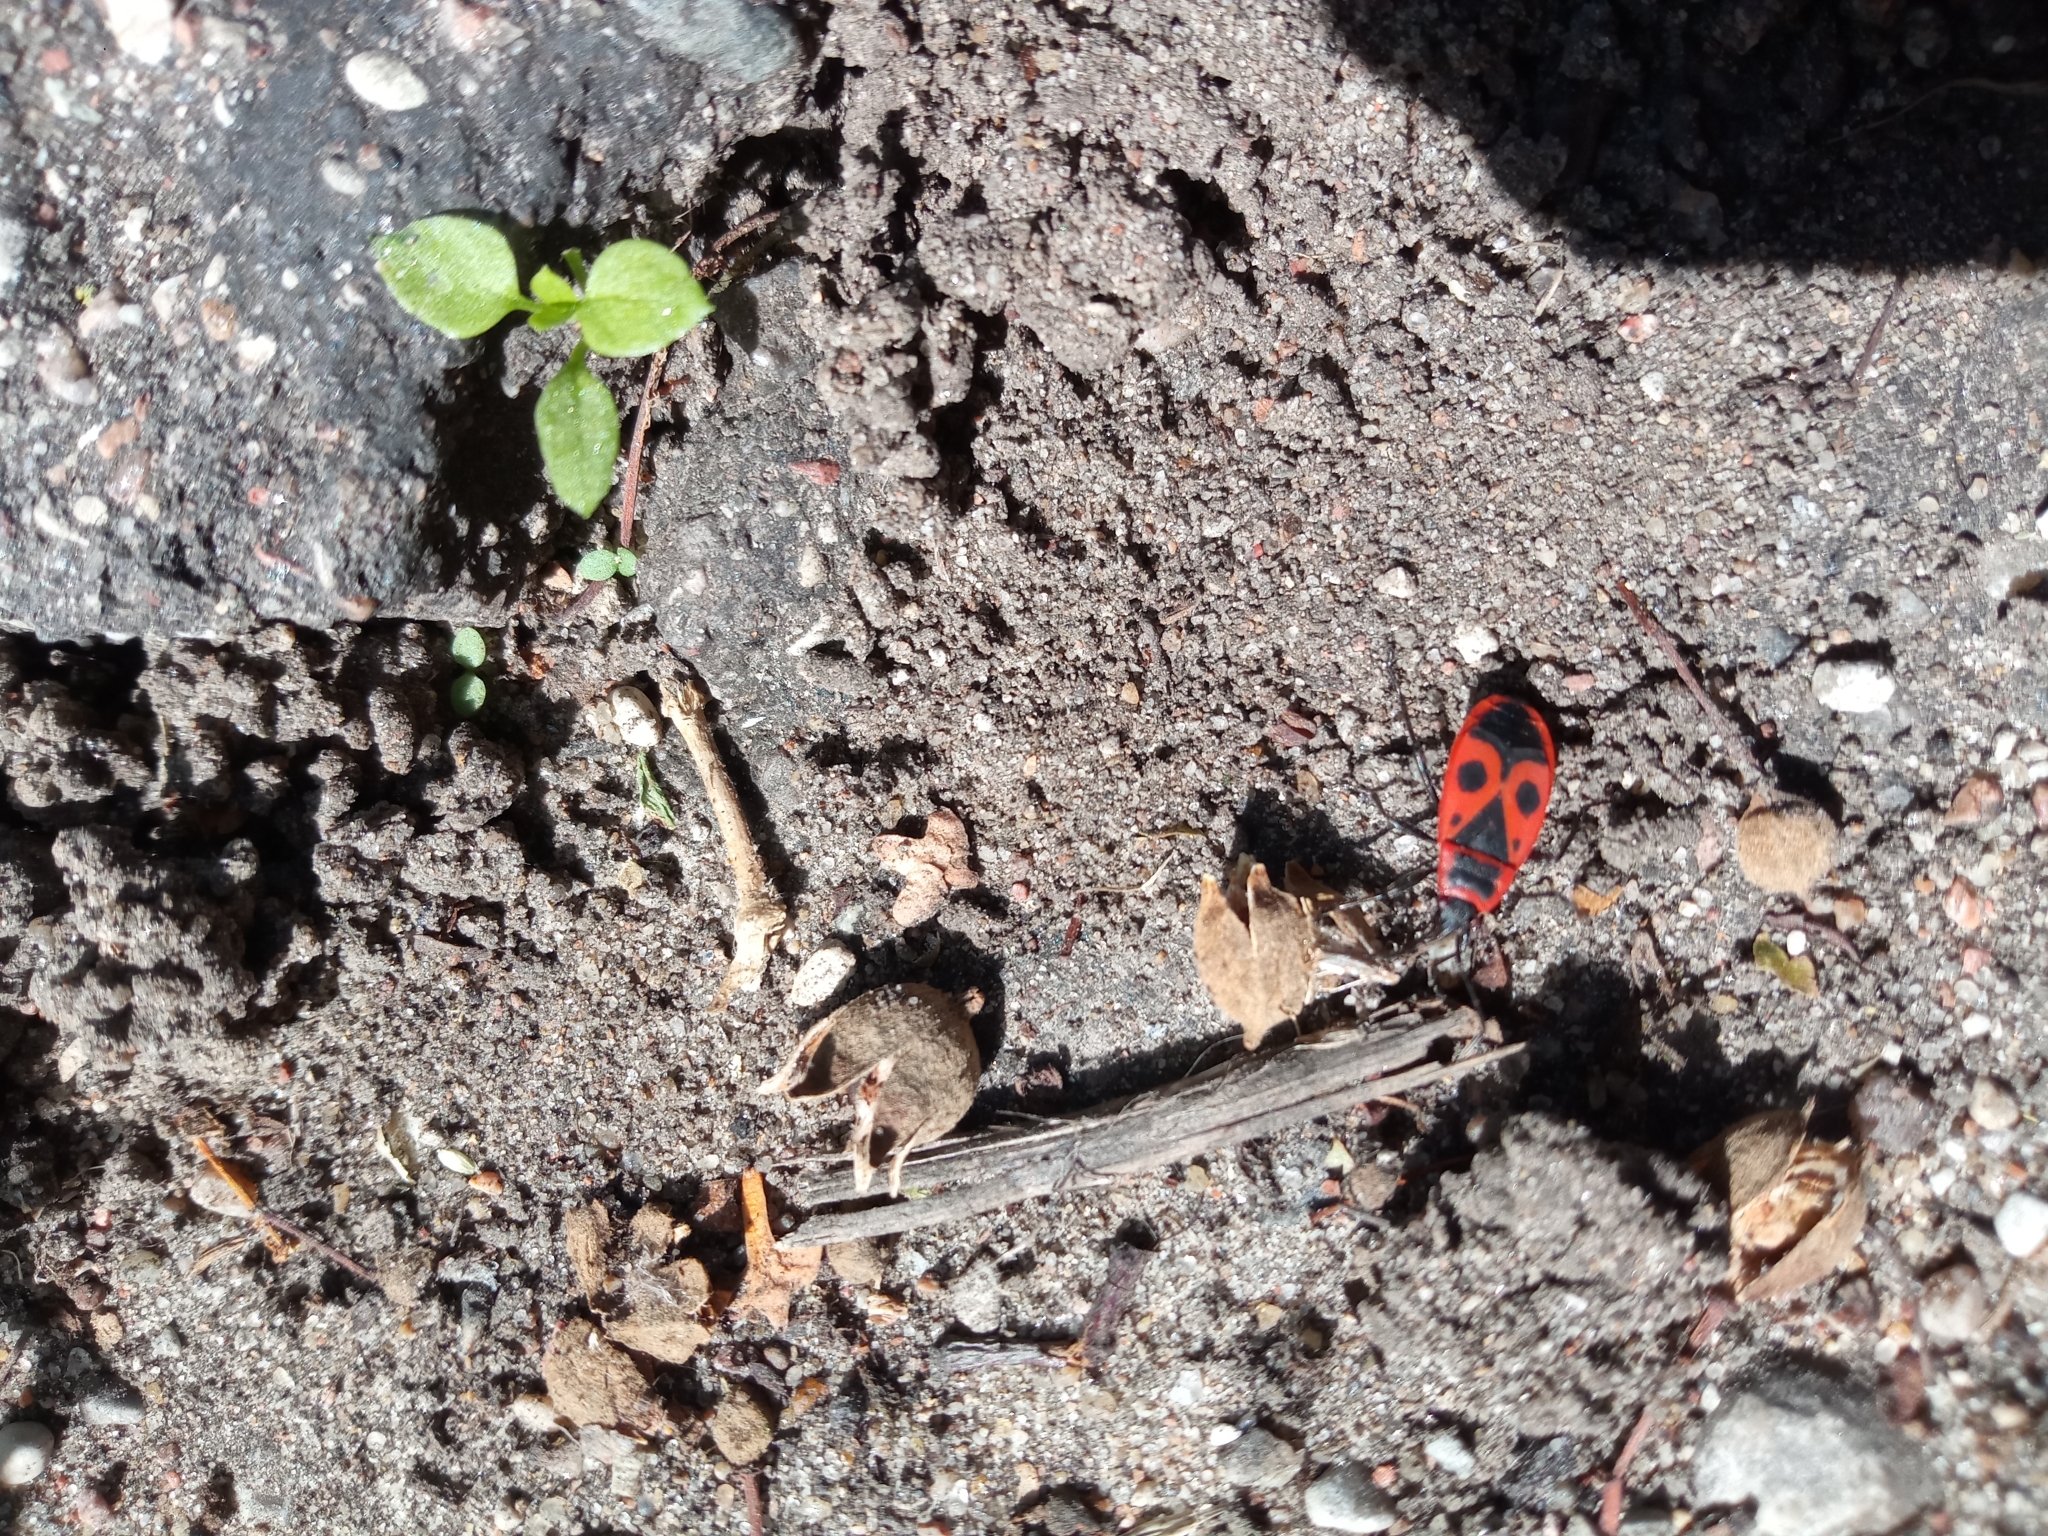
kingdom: Animalia
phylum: Arthropoda
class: Insecta
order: Hemiptera
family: Pyrrhocoridae
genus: Pyrrhocoris
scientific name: Pyrrhocoris apterus
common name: Firebug
